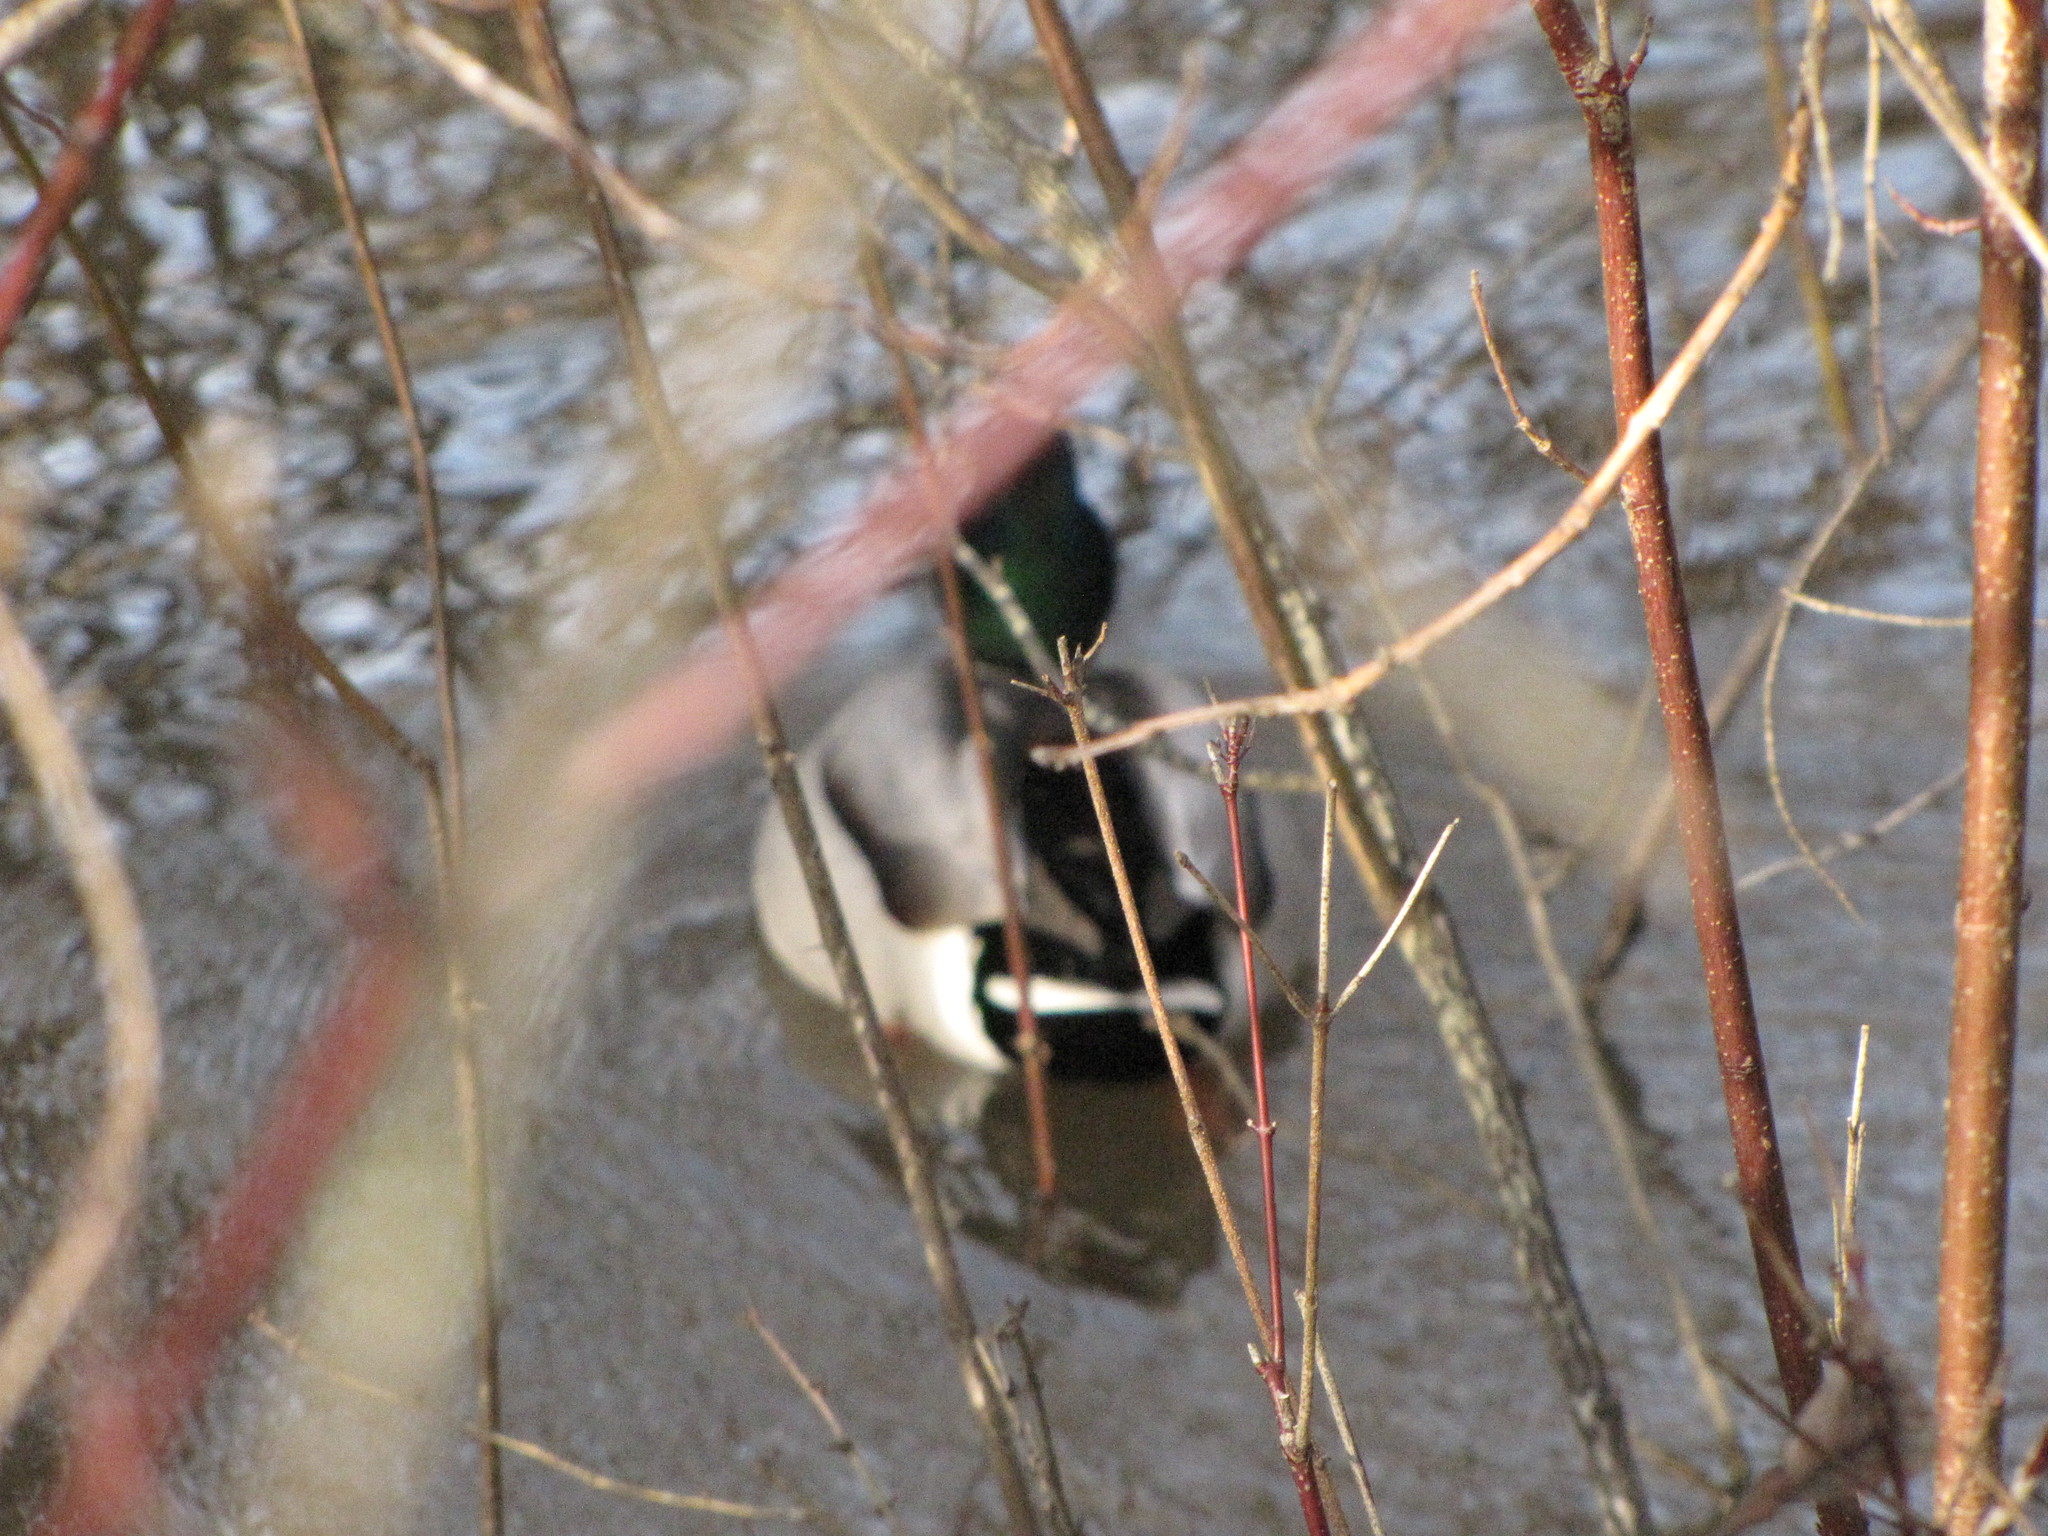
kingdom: Animalia
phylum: Chordata
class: Aves
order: Anseriformes
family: Anatidae
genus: Anas
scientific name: Anas platyrhynchos
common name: Mallard
